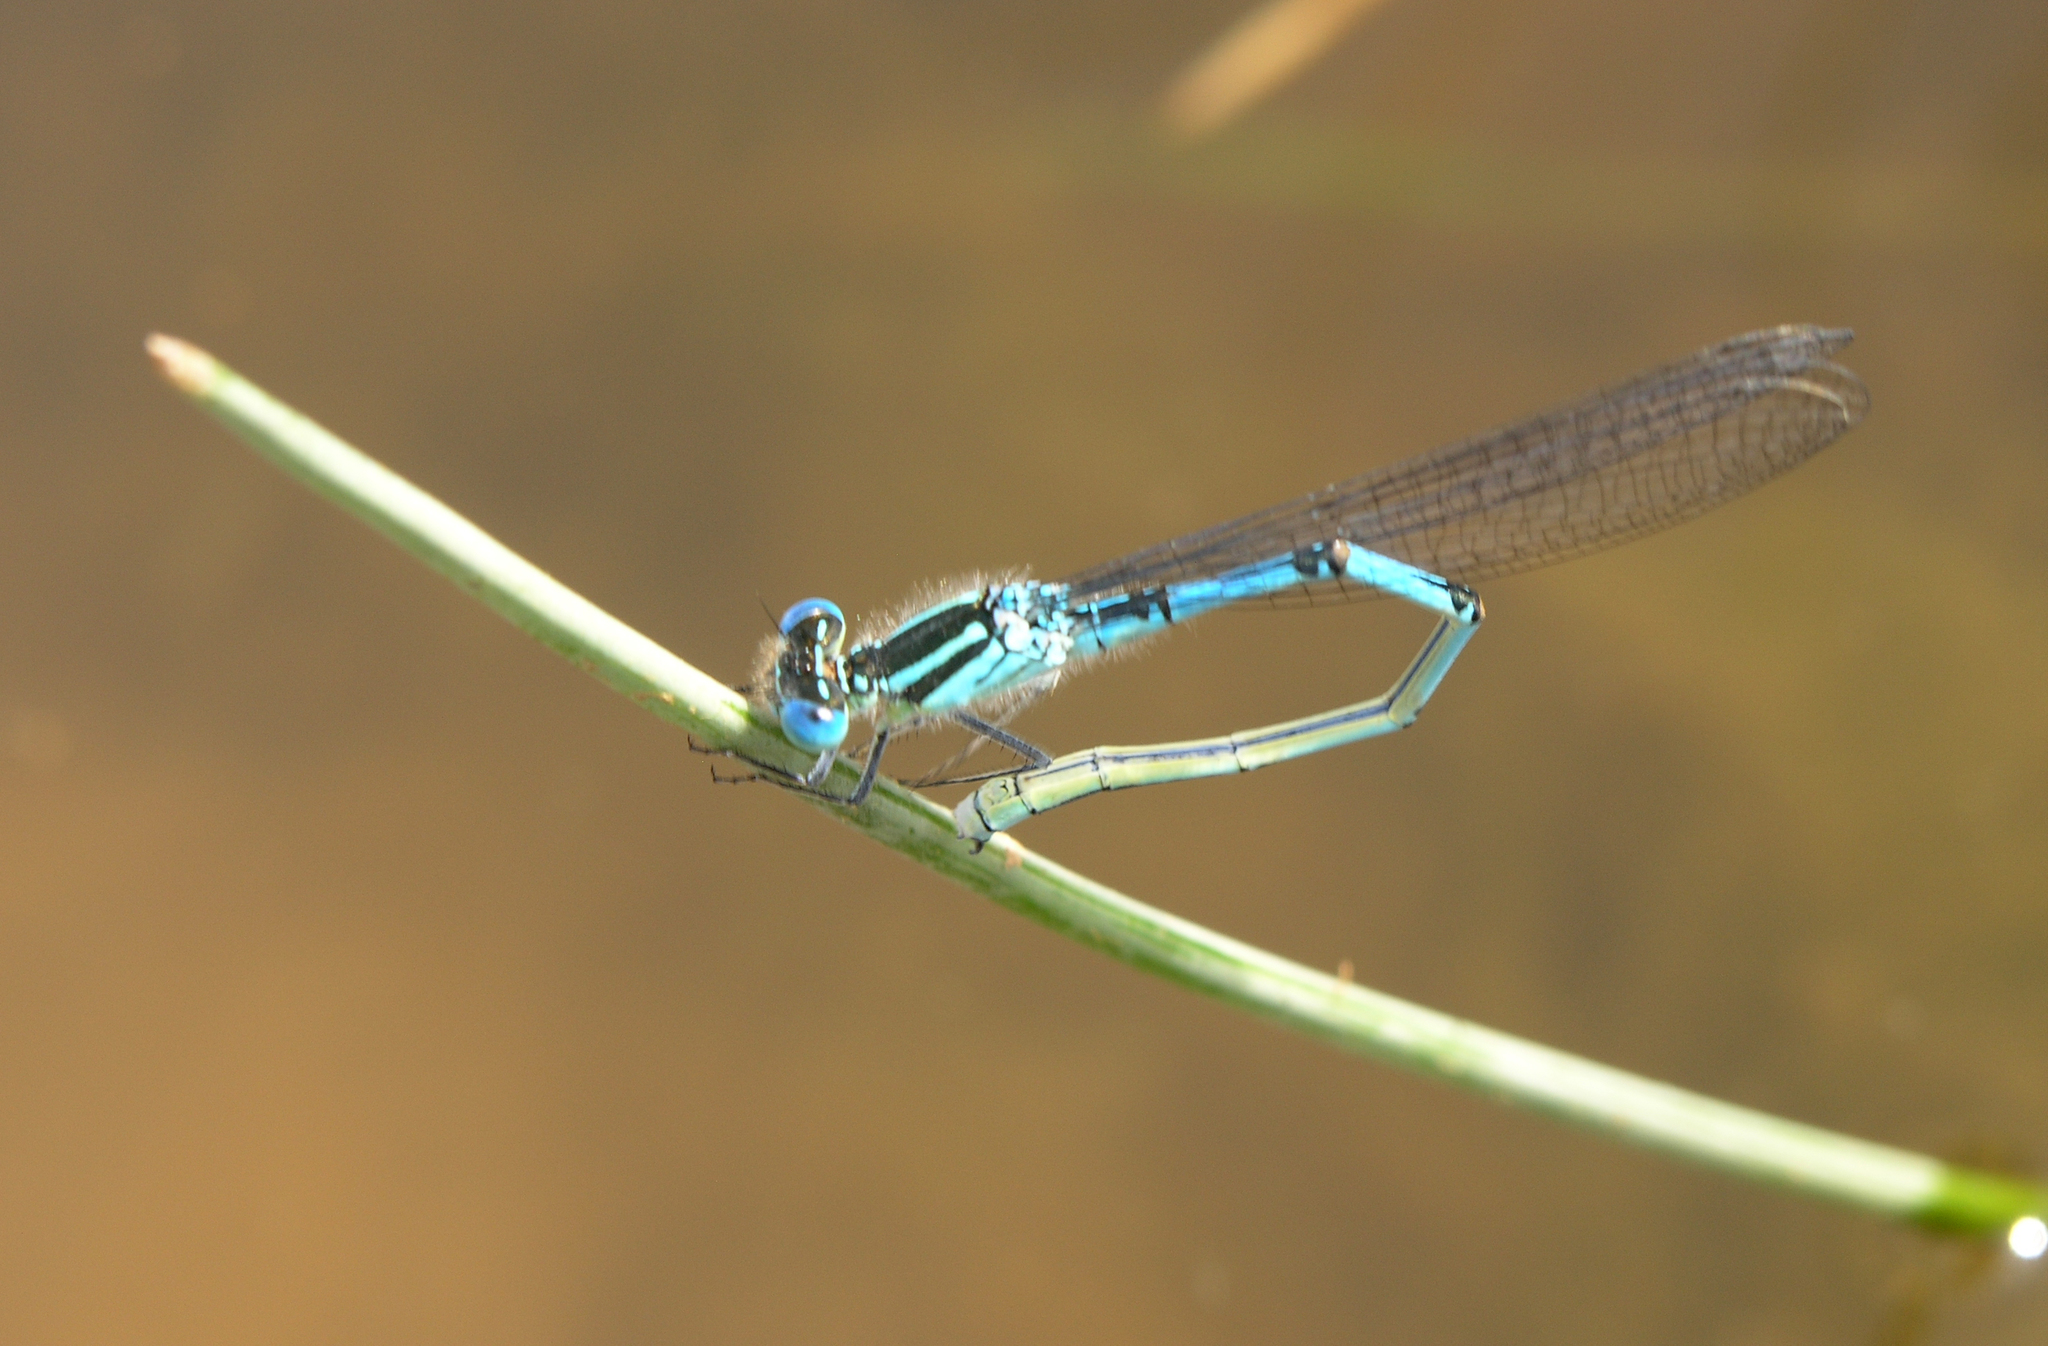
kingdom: Animalia
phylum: Arthropoda
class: Insecta
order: Odonata
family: Coenagrionidae
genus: Erythromma
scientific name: Erythromma lindenii
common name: Blue-eye
